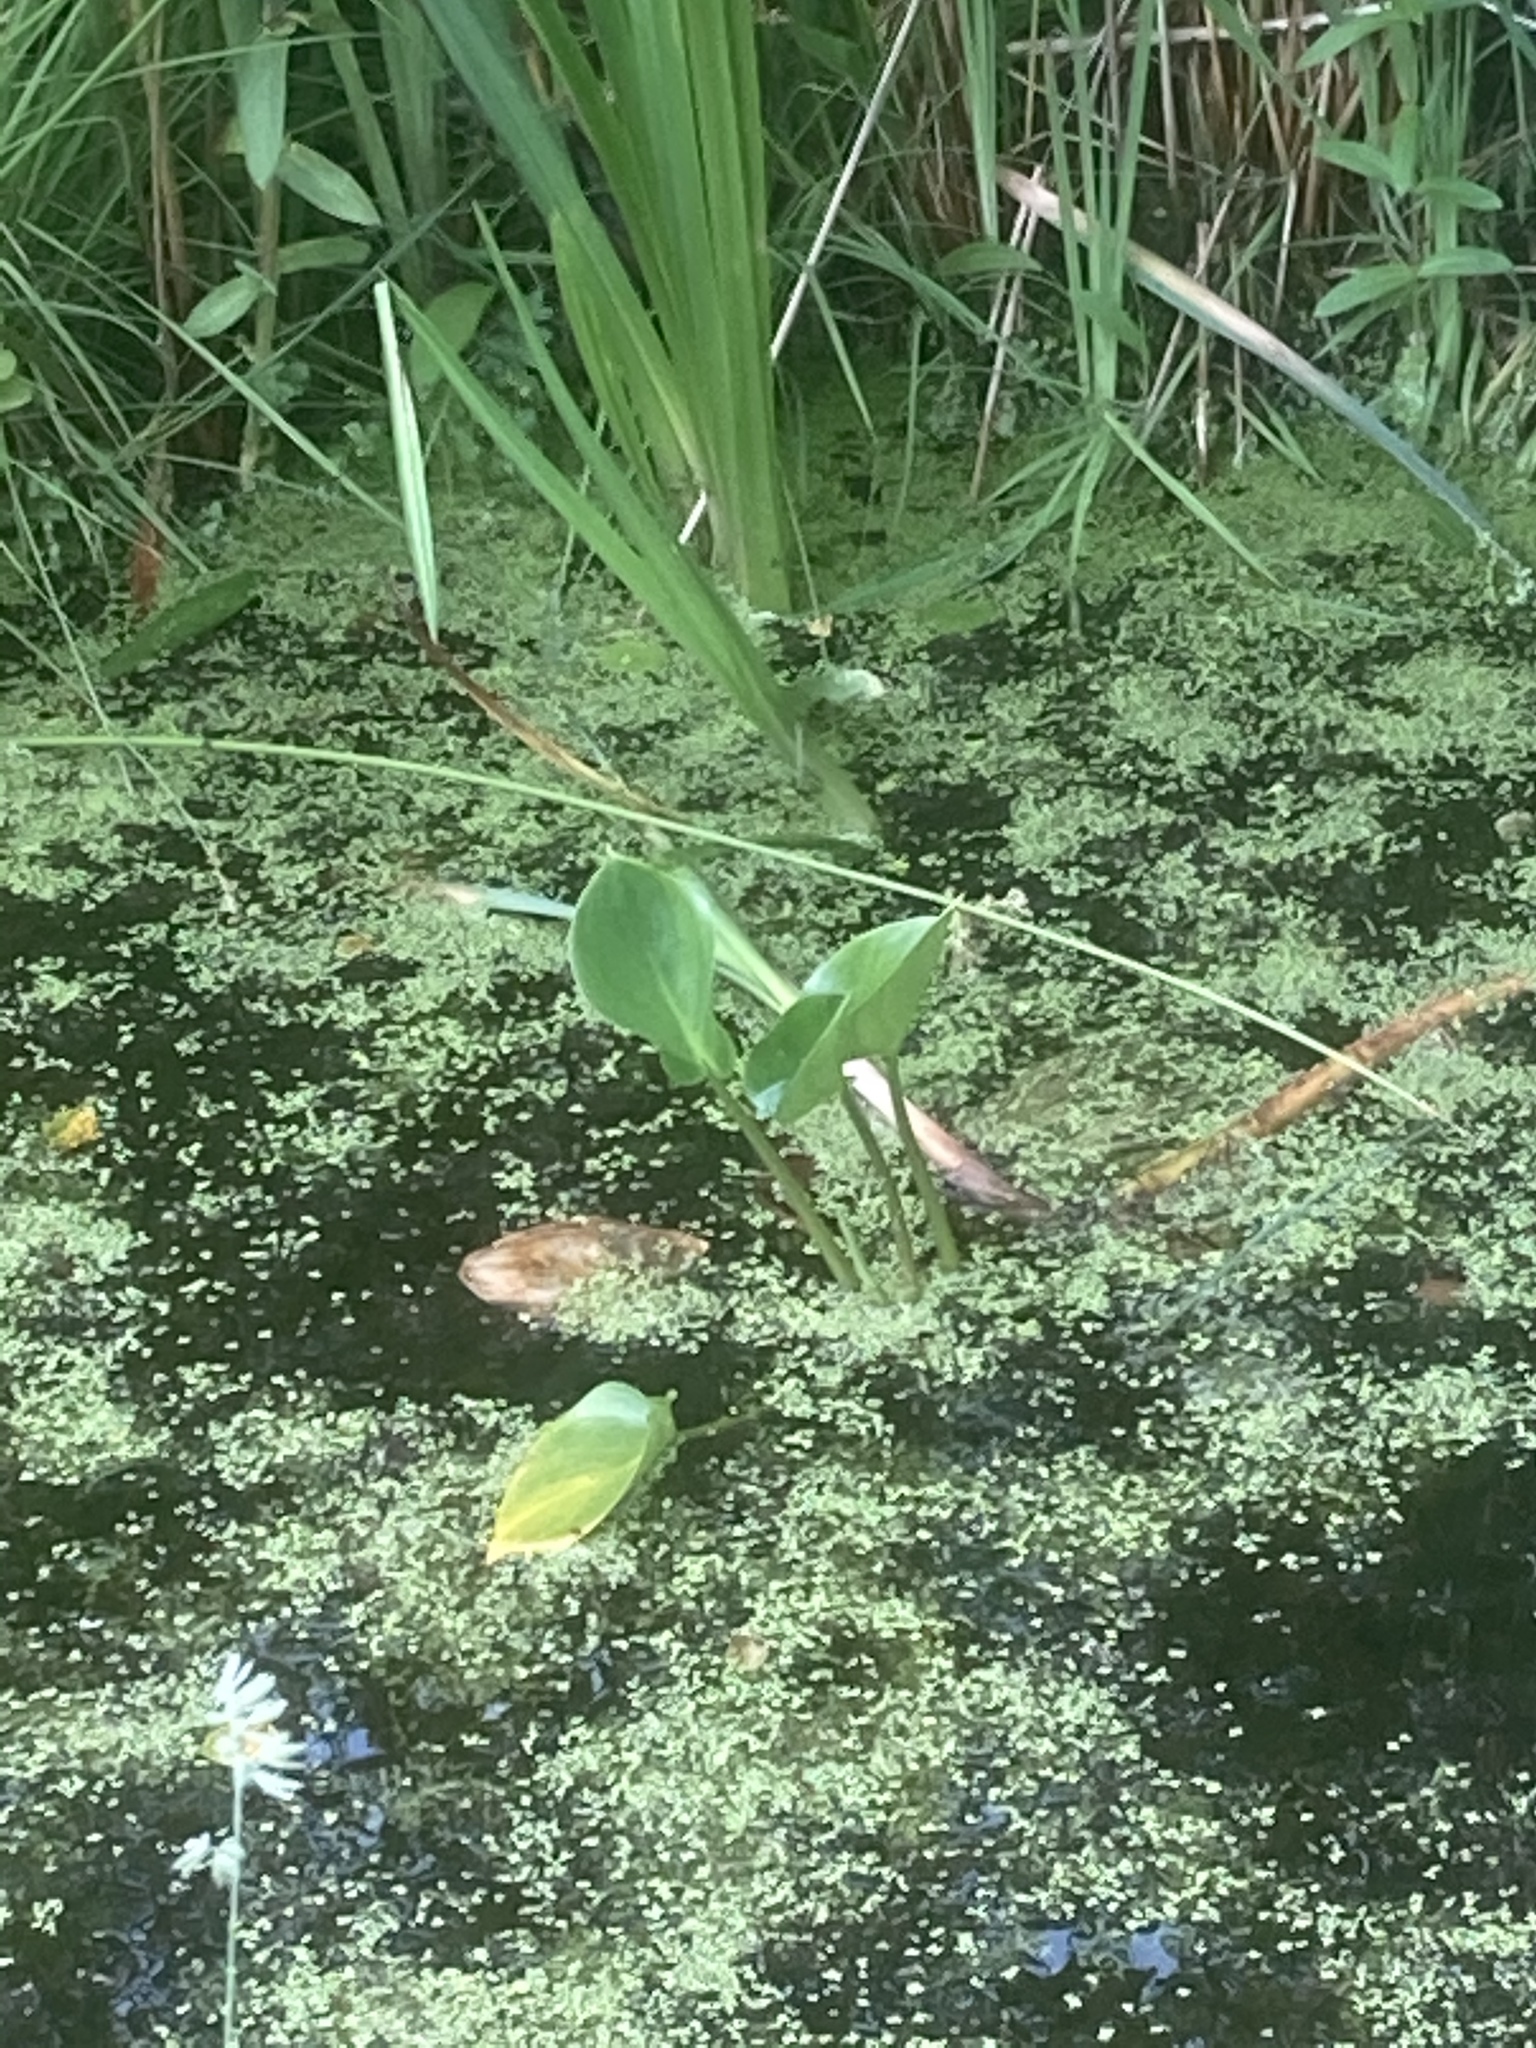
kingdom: Plantae
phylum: Tracheophyta
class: Liliopsida
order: Alismatales
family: Araceae
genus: Calla
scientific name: Calla palustris
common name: Bog arum
